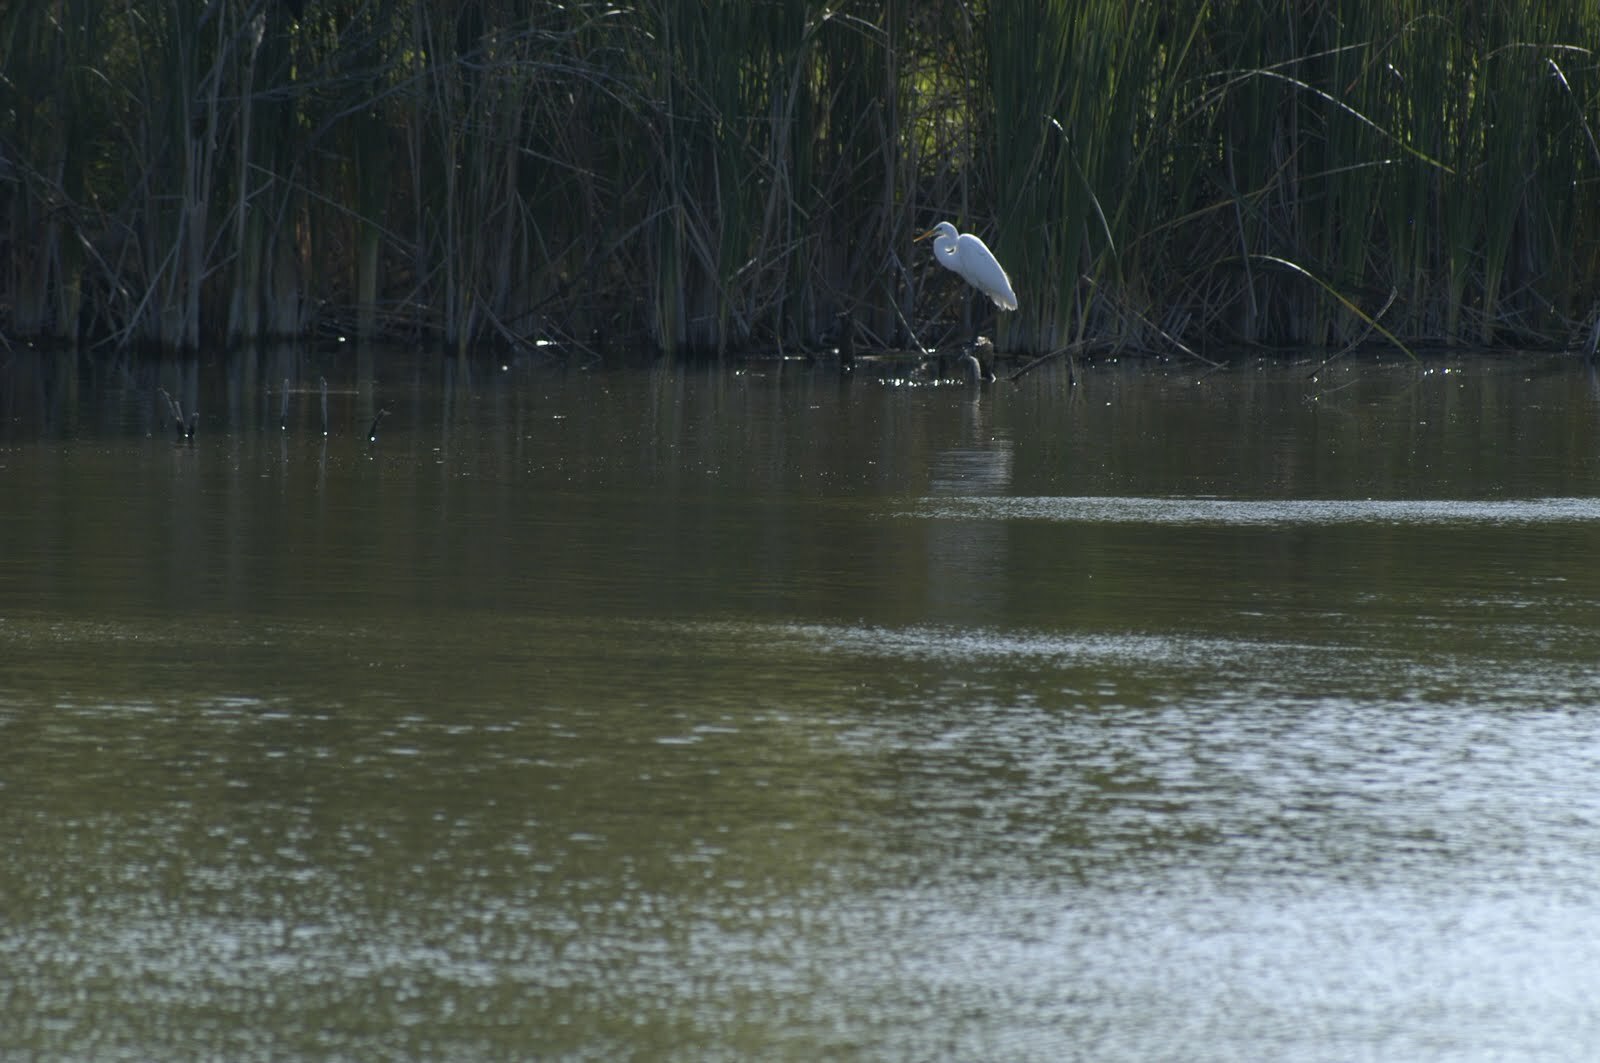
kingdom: Animalia
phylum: Chordata
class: Aves
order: Pelecaniformes
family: Ardeidae
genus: Ardea
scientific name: Ardea alba
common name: Great egret
